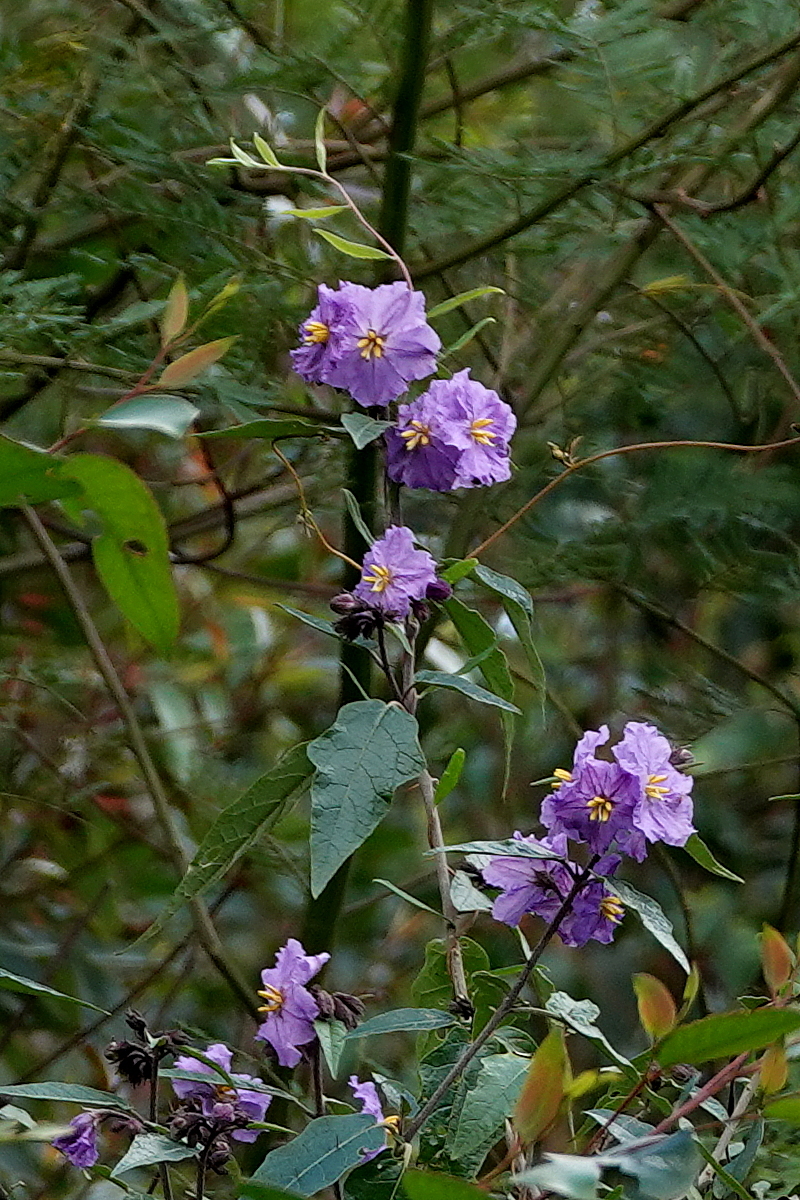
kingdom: Plantae
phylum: Tracheophyta
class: Magnoliopsida
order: Solanales
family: Solanaceae
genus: Solanum
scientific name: Solanum silvestre
